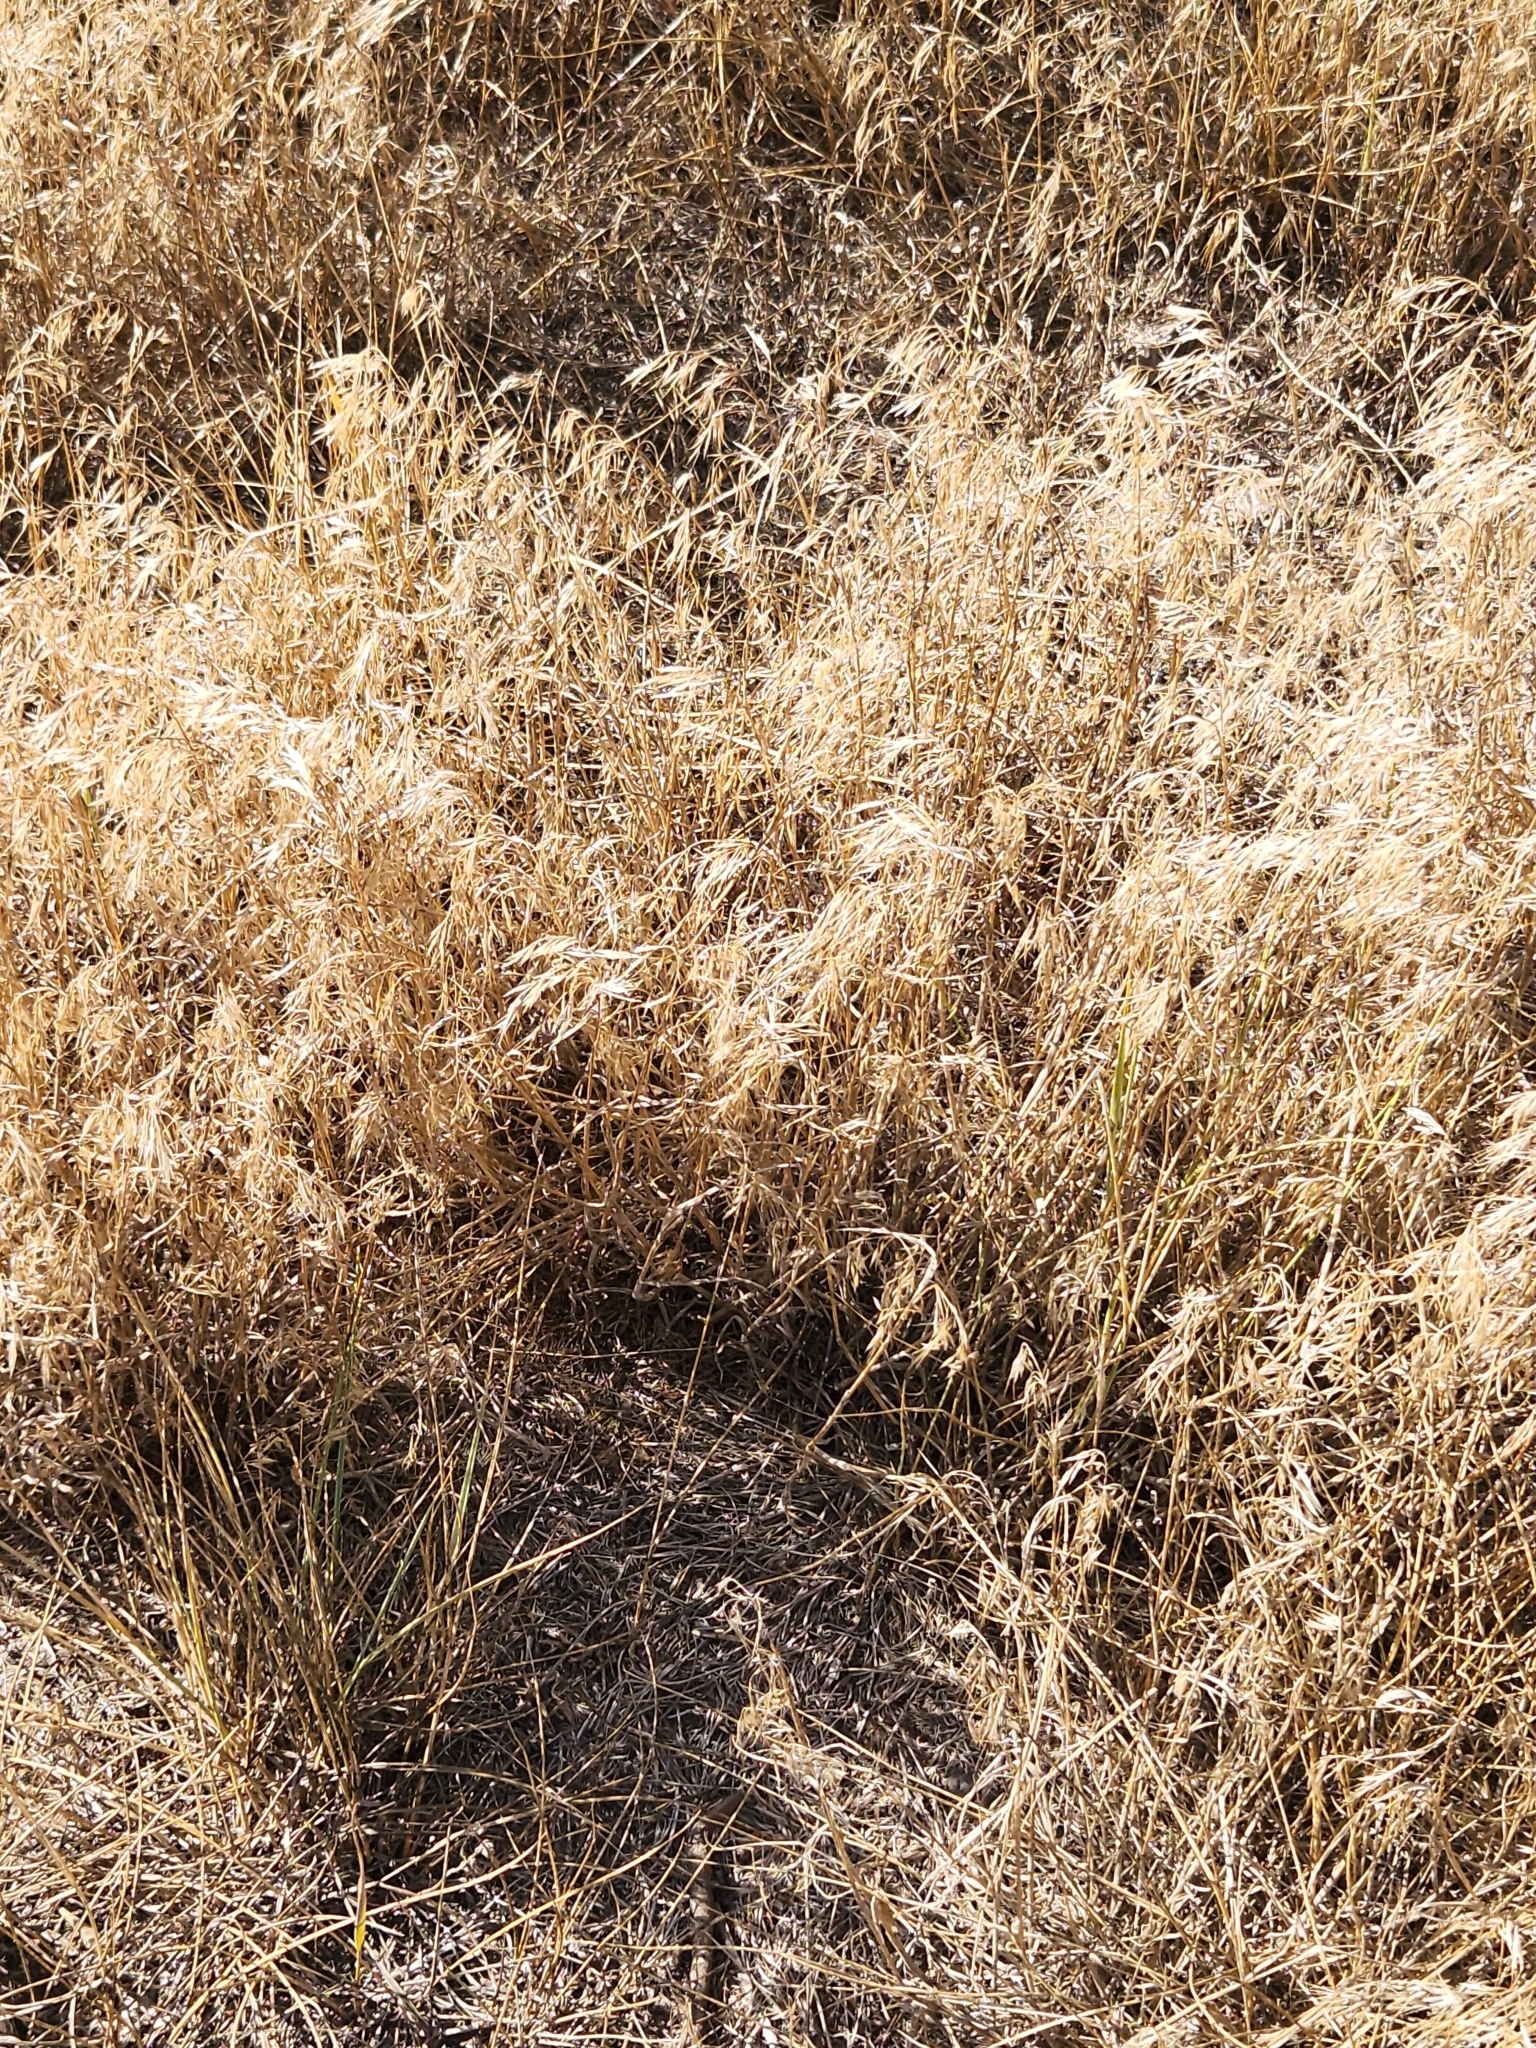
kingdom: Plantae
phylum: Tracheophyta
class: Liliopsida
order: Poales
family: Poaceae
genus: Bromus
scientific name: Bromus tectorum
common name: Cheatgrass
